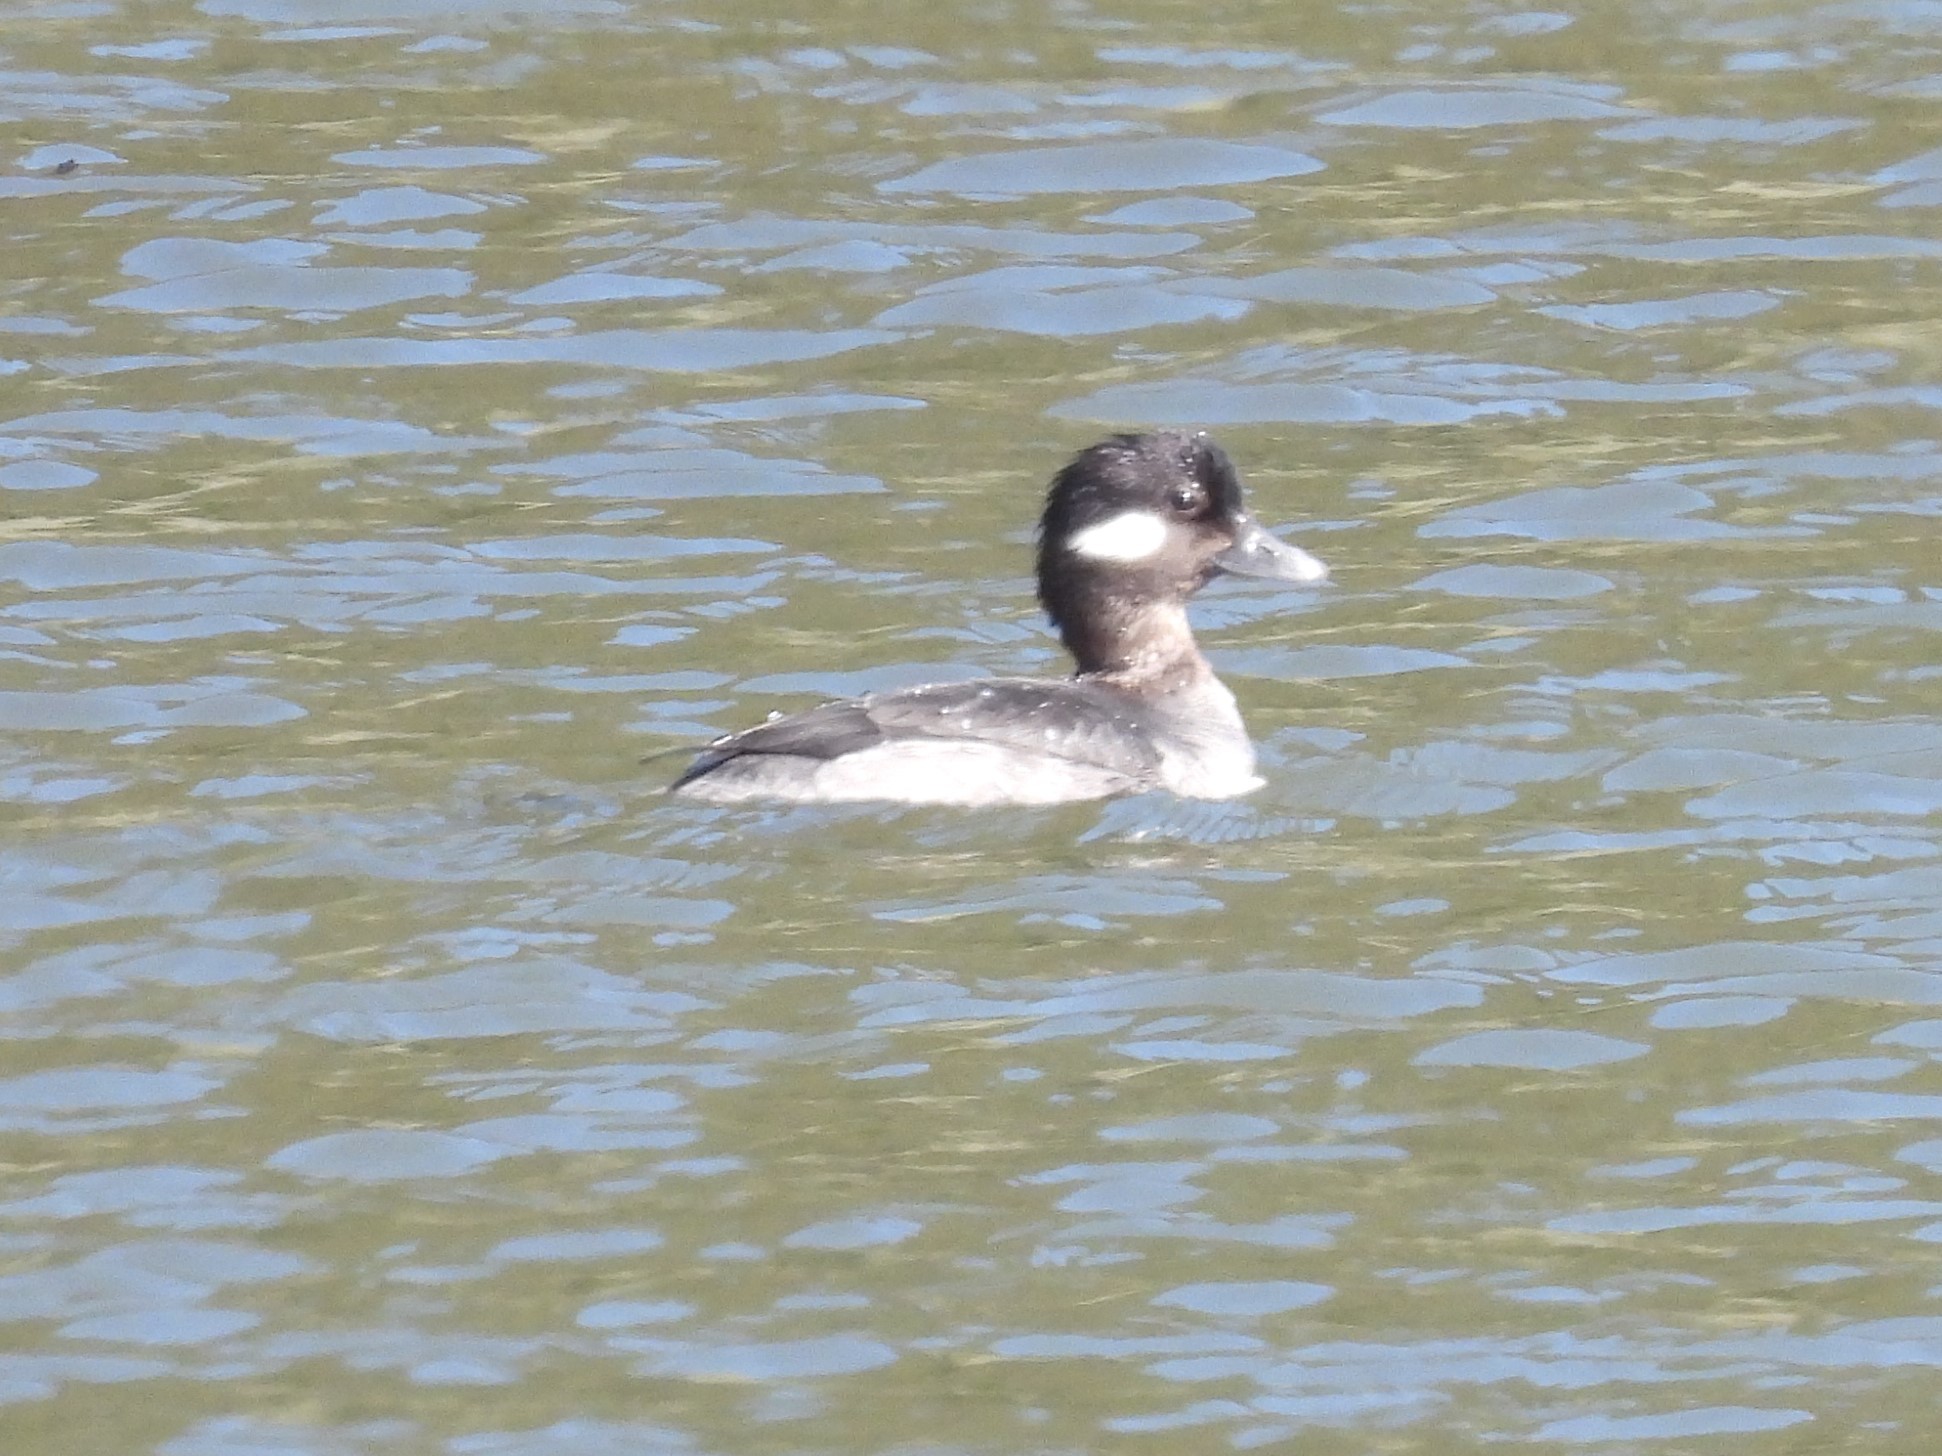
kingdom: Animalia
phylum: Chordata
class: Aves
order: Anseriformes
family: Anatidae
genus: Bucephala
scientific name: Bucephala albeola
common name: Bufflehead
